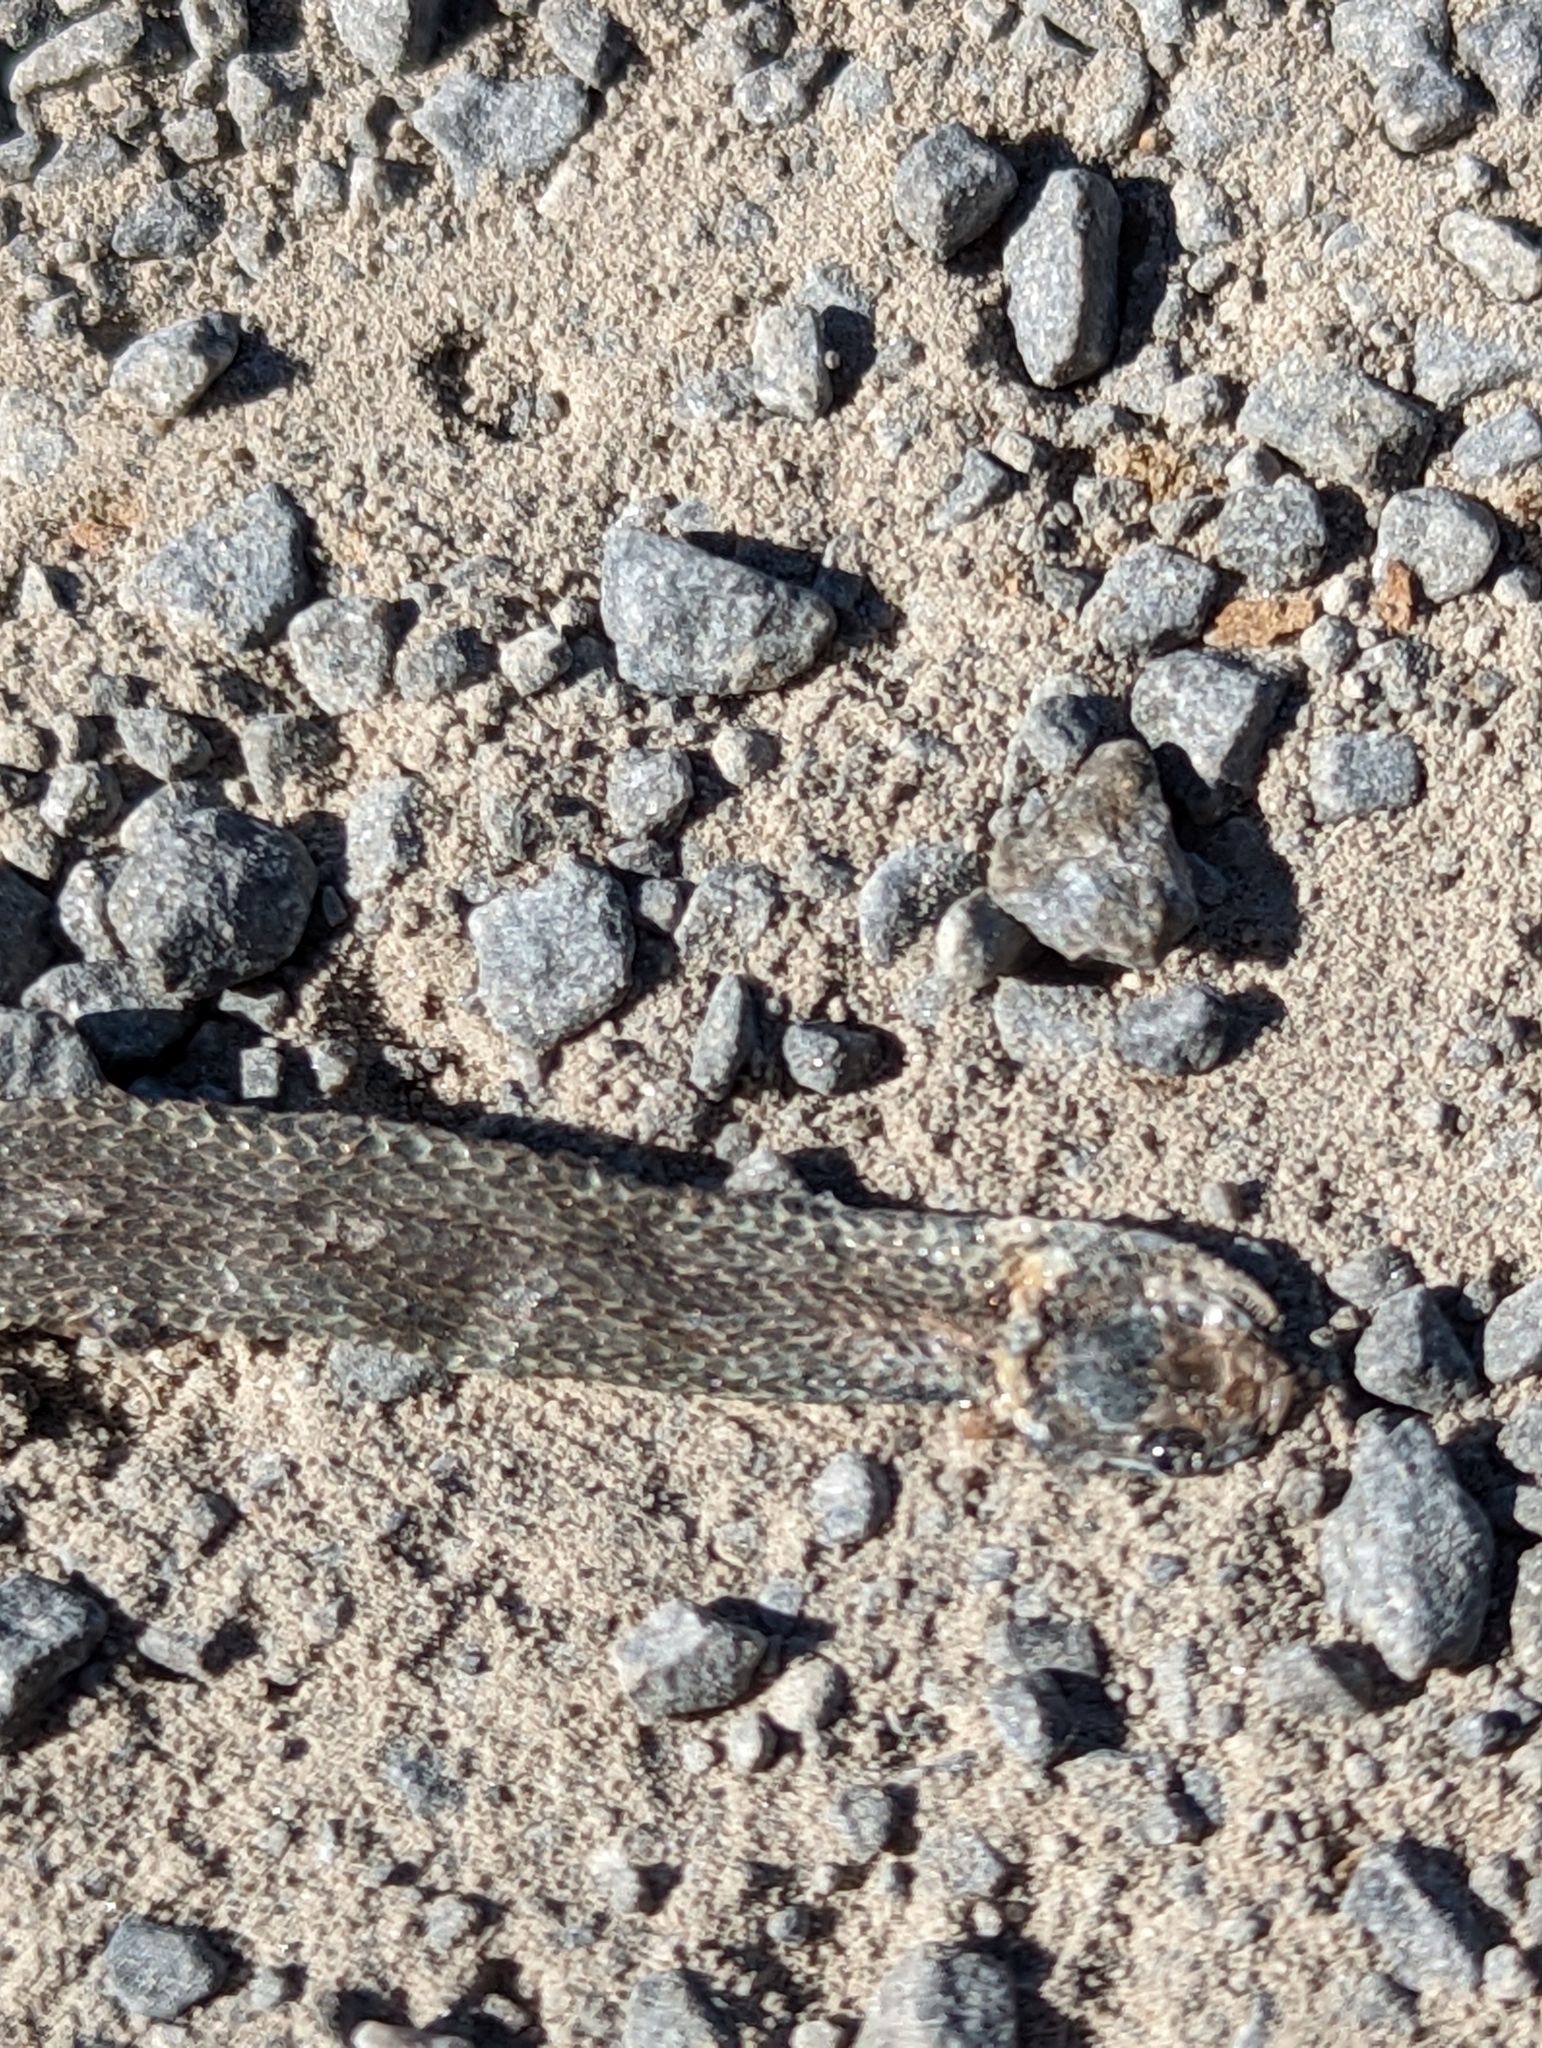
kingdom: Animalia
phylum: Chordata
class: Squamata
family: Colubridae
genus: Storeria
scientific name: Storeria occipitomaculata
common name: Redbelly snake
